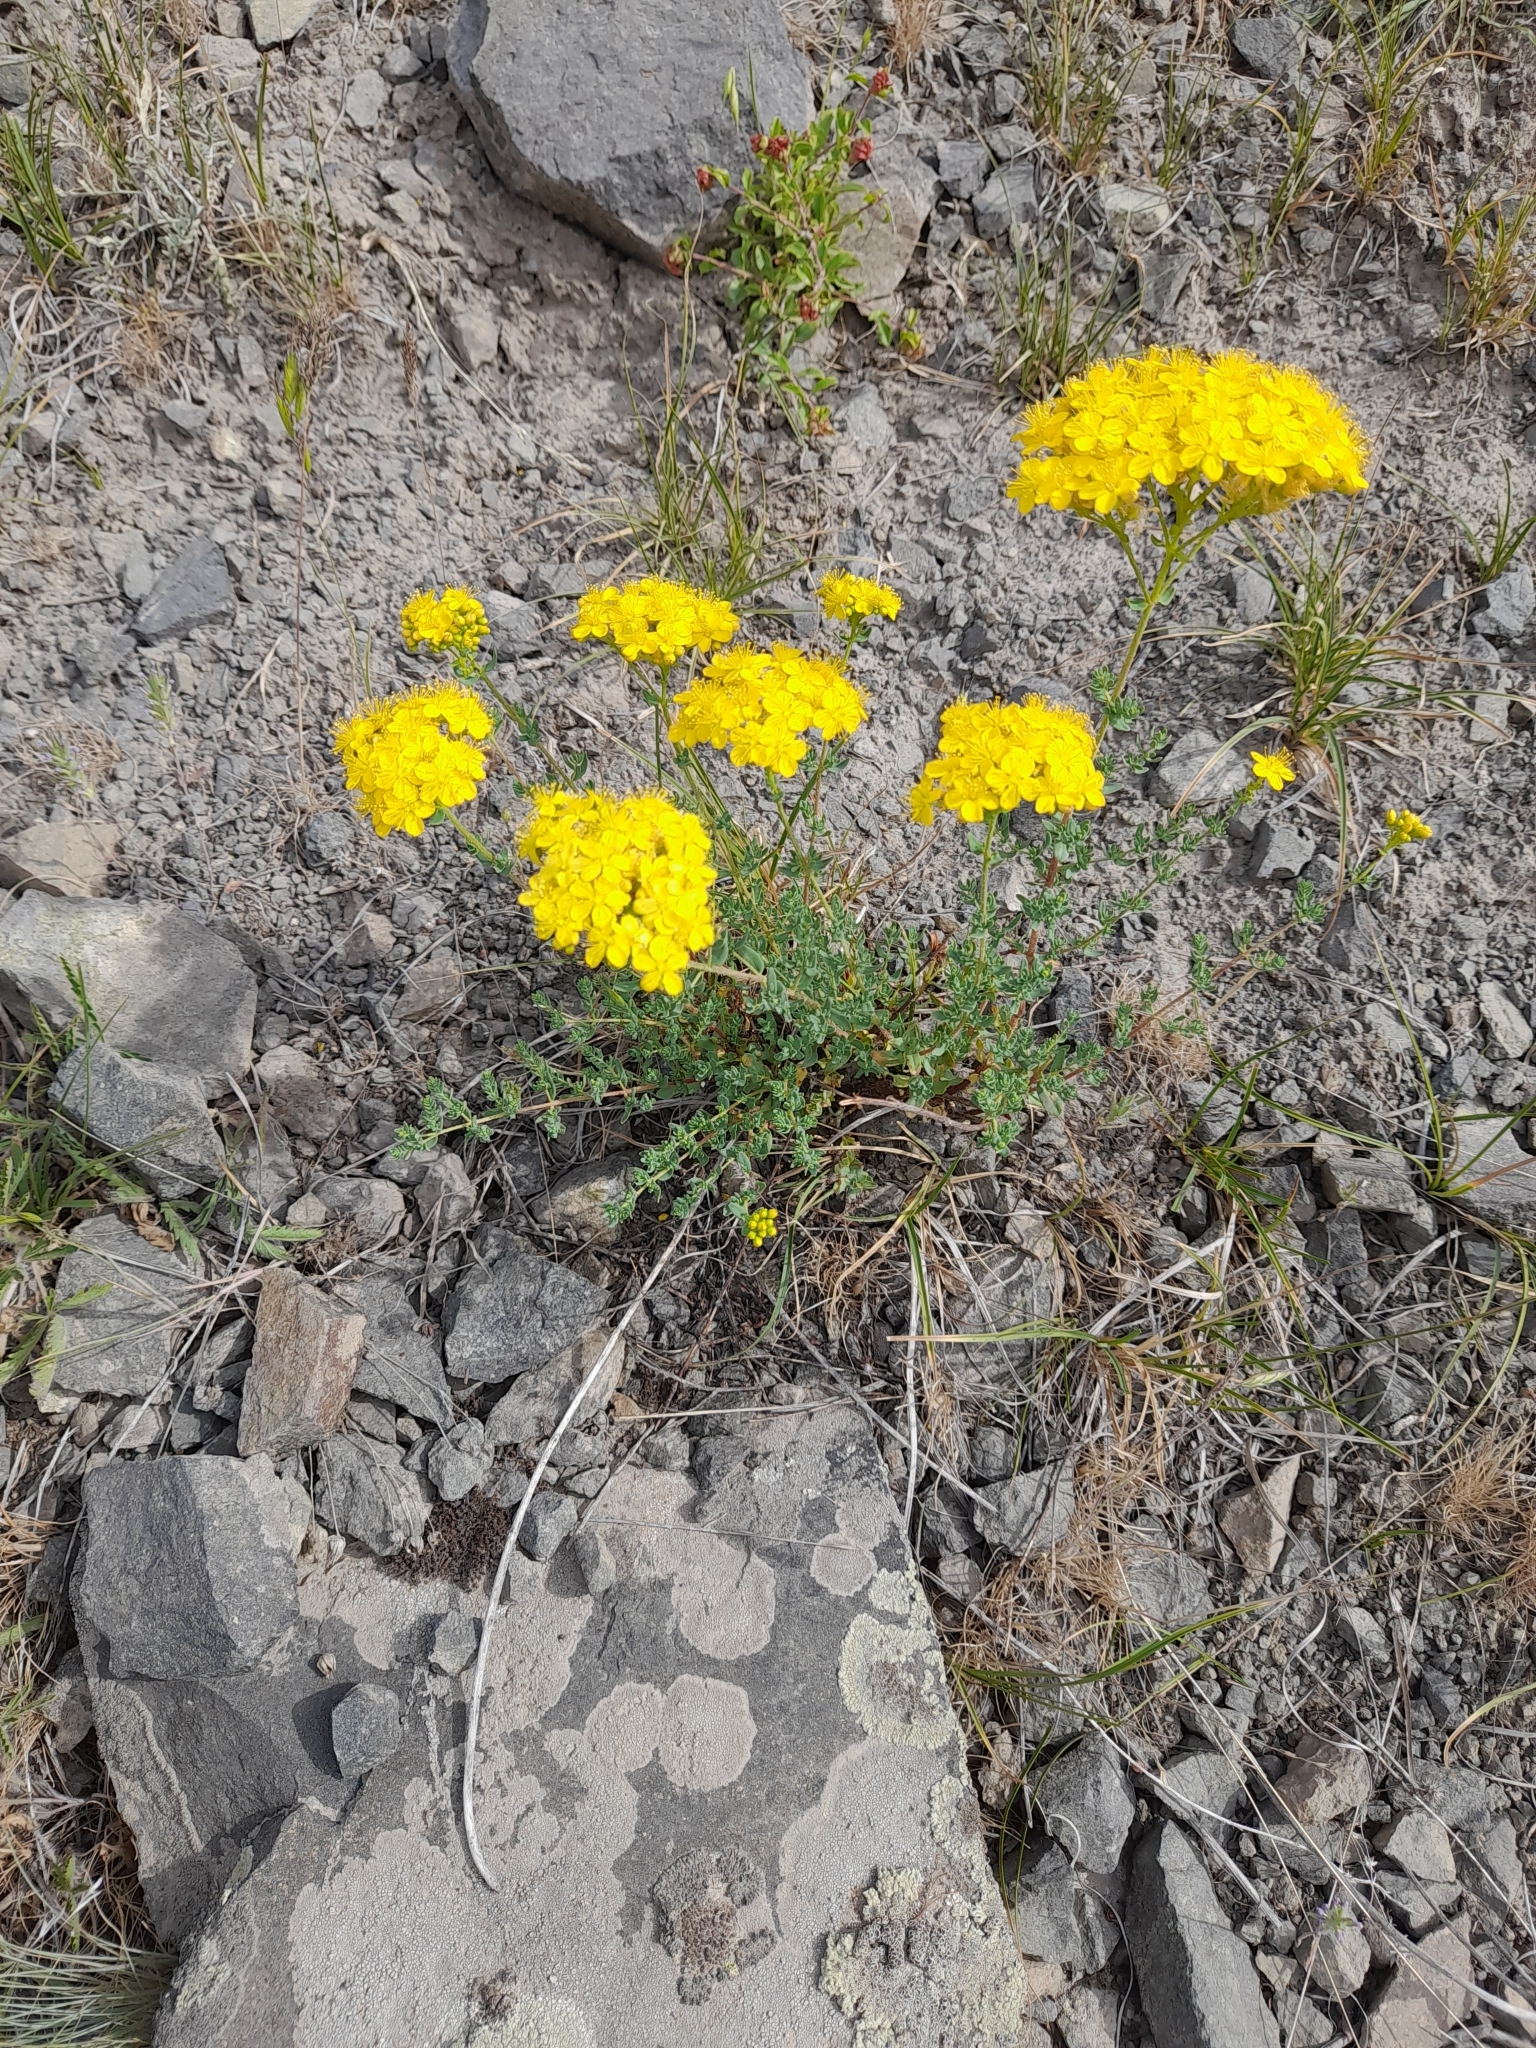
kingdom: Plantae
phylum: Tracheophyta
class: Magnoliopsida
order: Malpighiales
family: Hypericaceae
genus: Hypericum
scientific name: Hypericum scabrum
